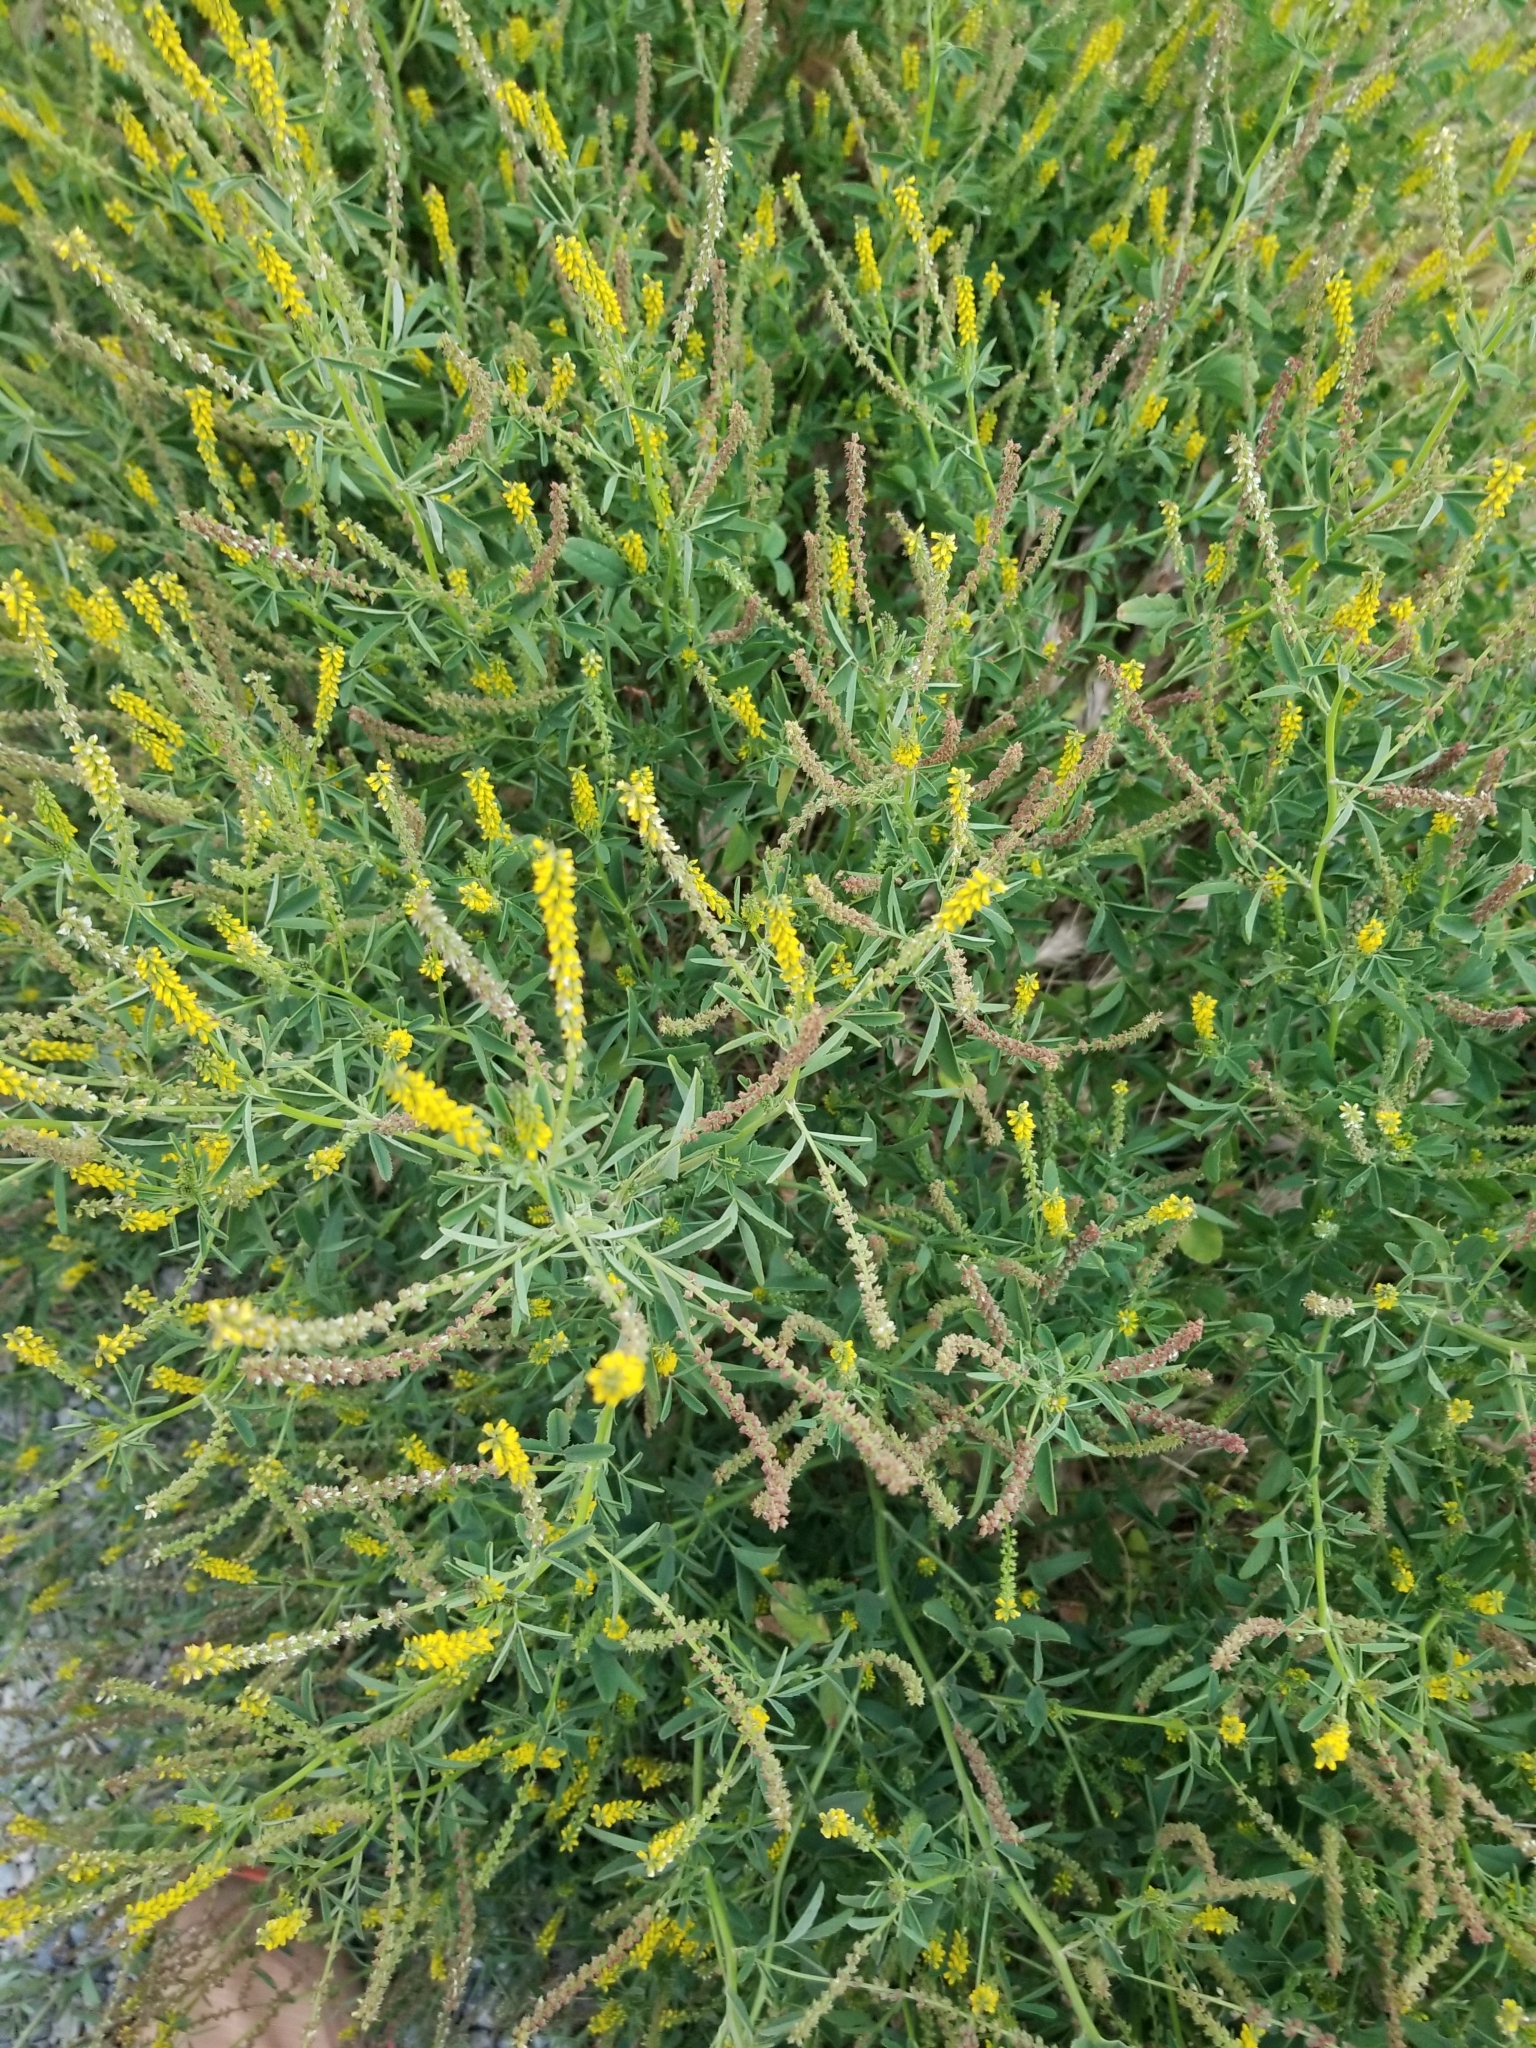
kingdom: Plantae
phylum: Tracheophyta
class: Magnoliopsida
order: Fabales
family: Fabaceae
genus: Melilotus
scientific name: Melilotus indicus
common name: Small melilot
